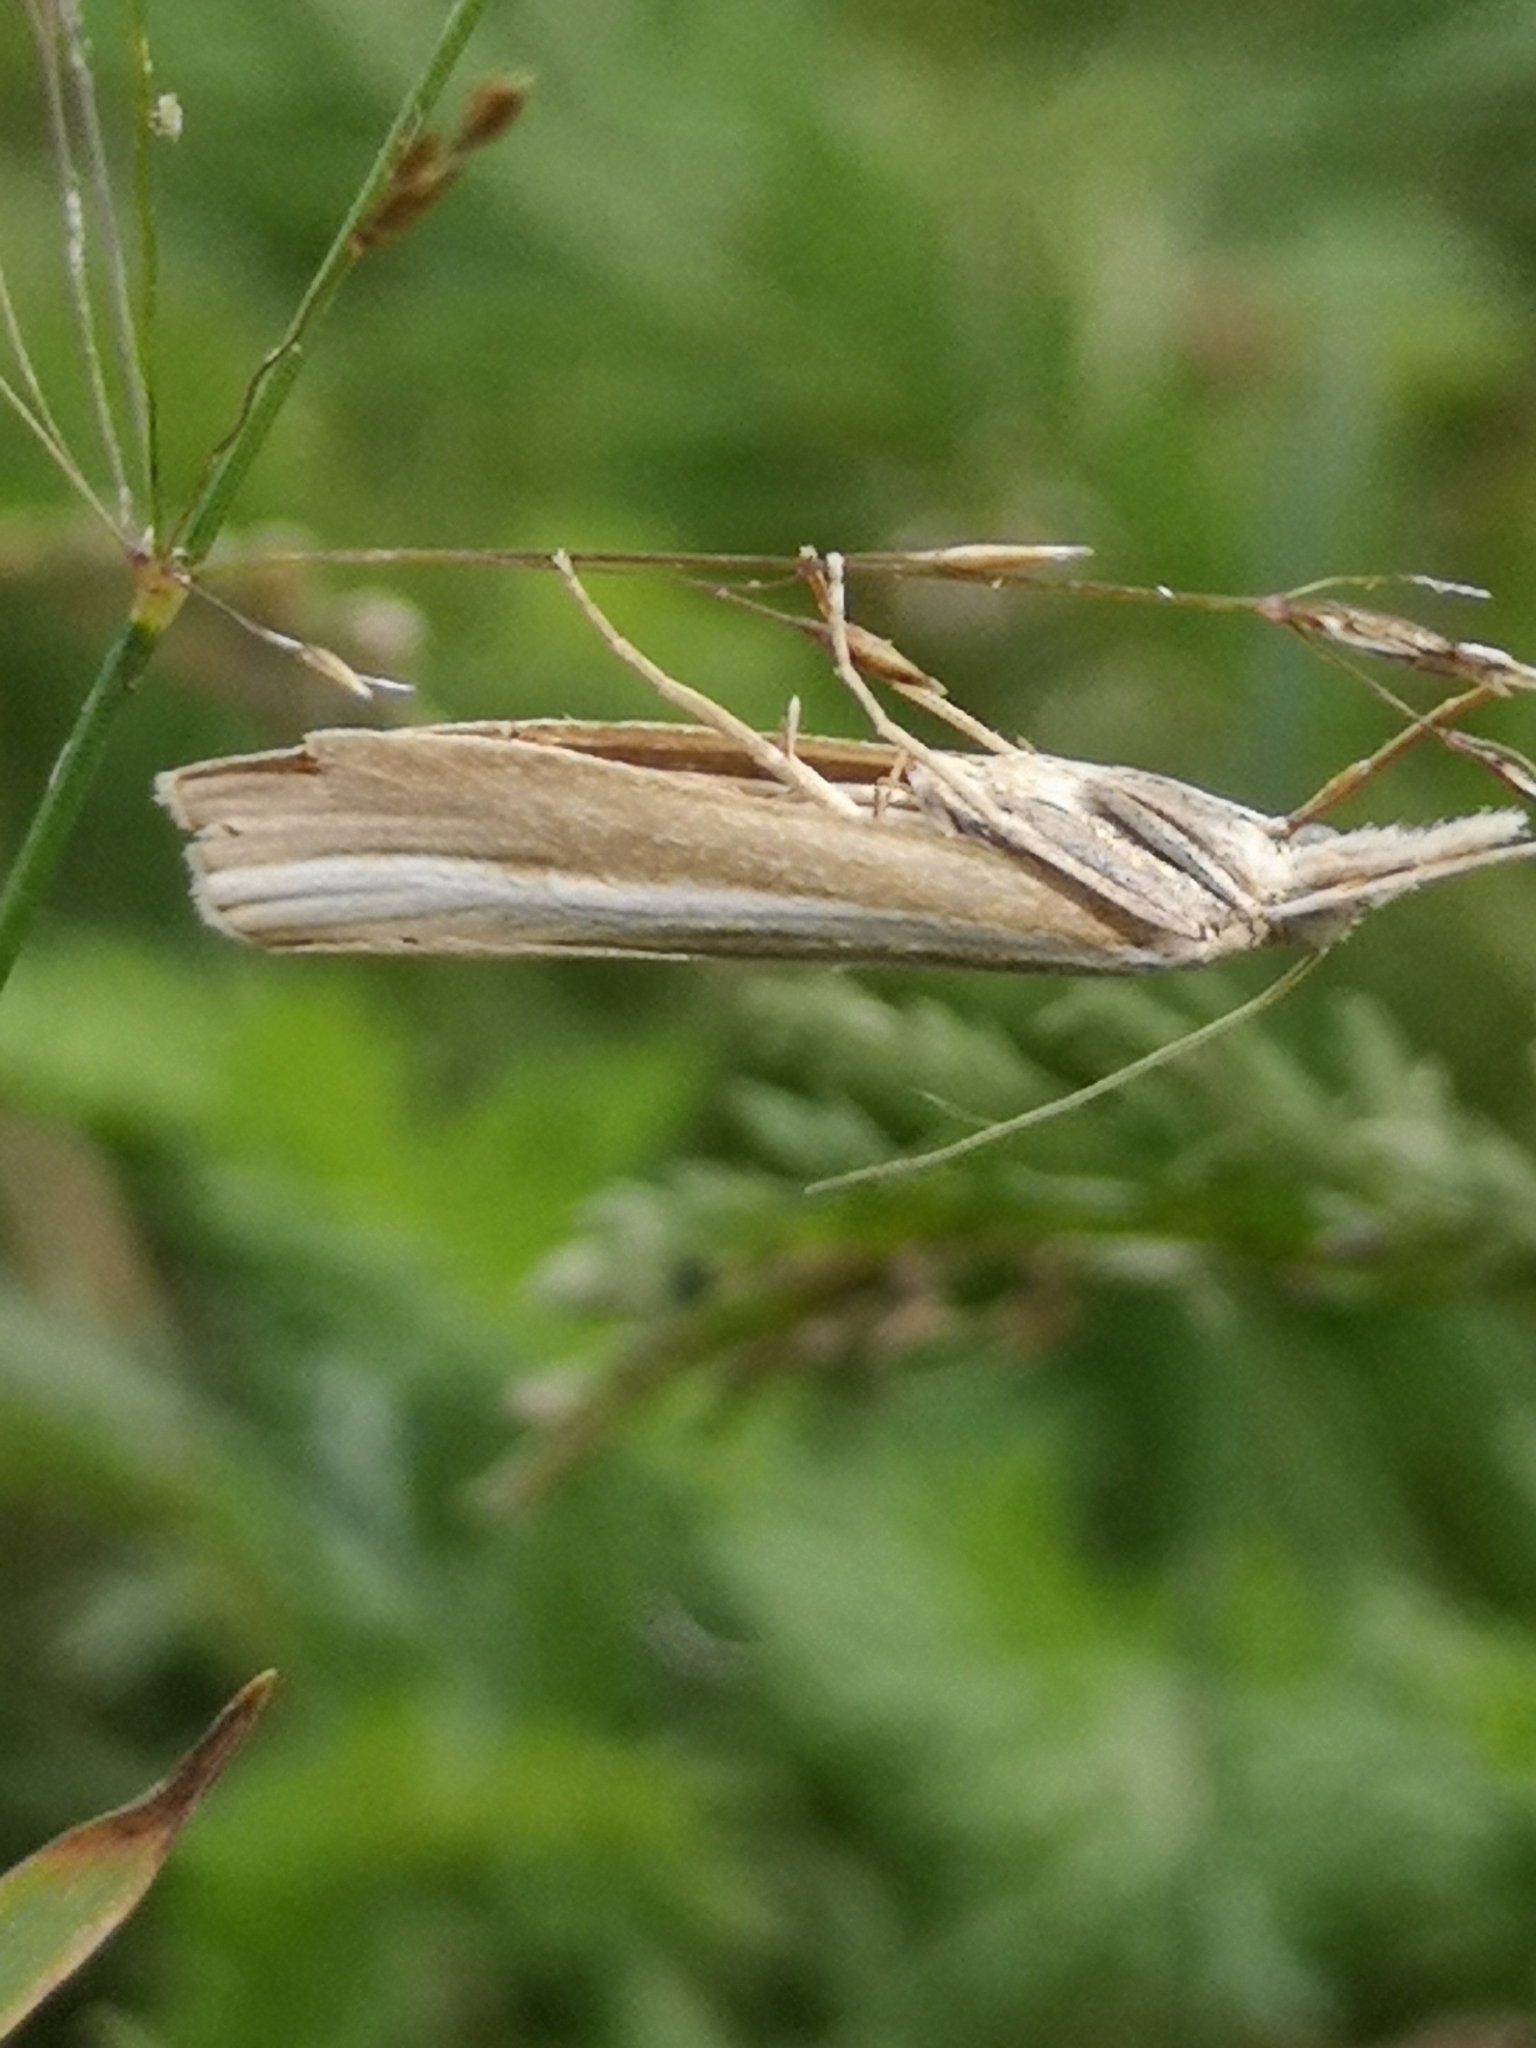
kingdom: Animalia
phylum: Arthropoda
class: Insecta
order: Lepidoptera
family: Crambidae
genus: Agriphila
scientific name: Agriphila tristellus
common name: Common grass-veneer
